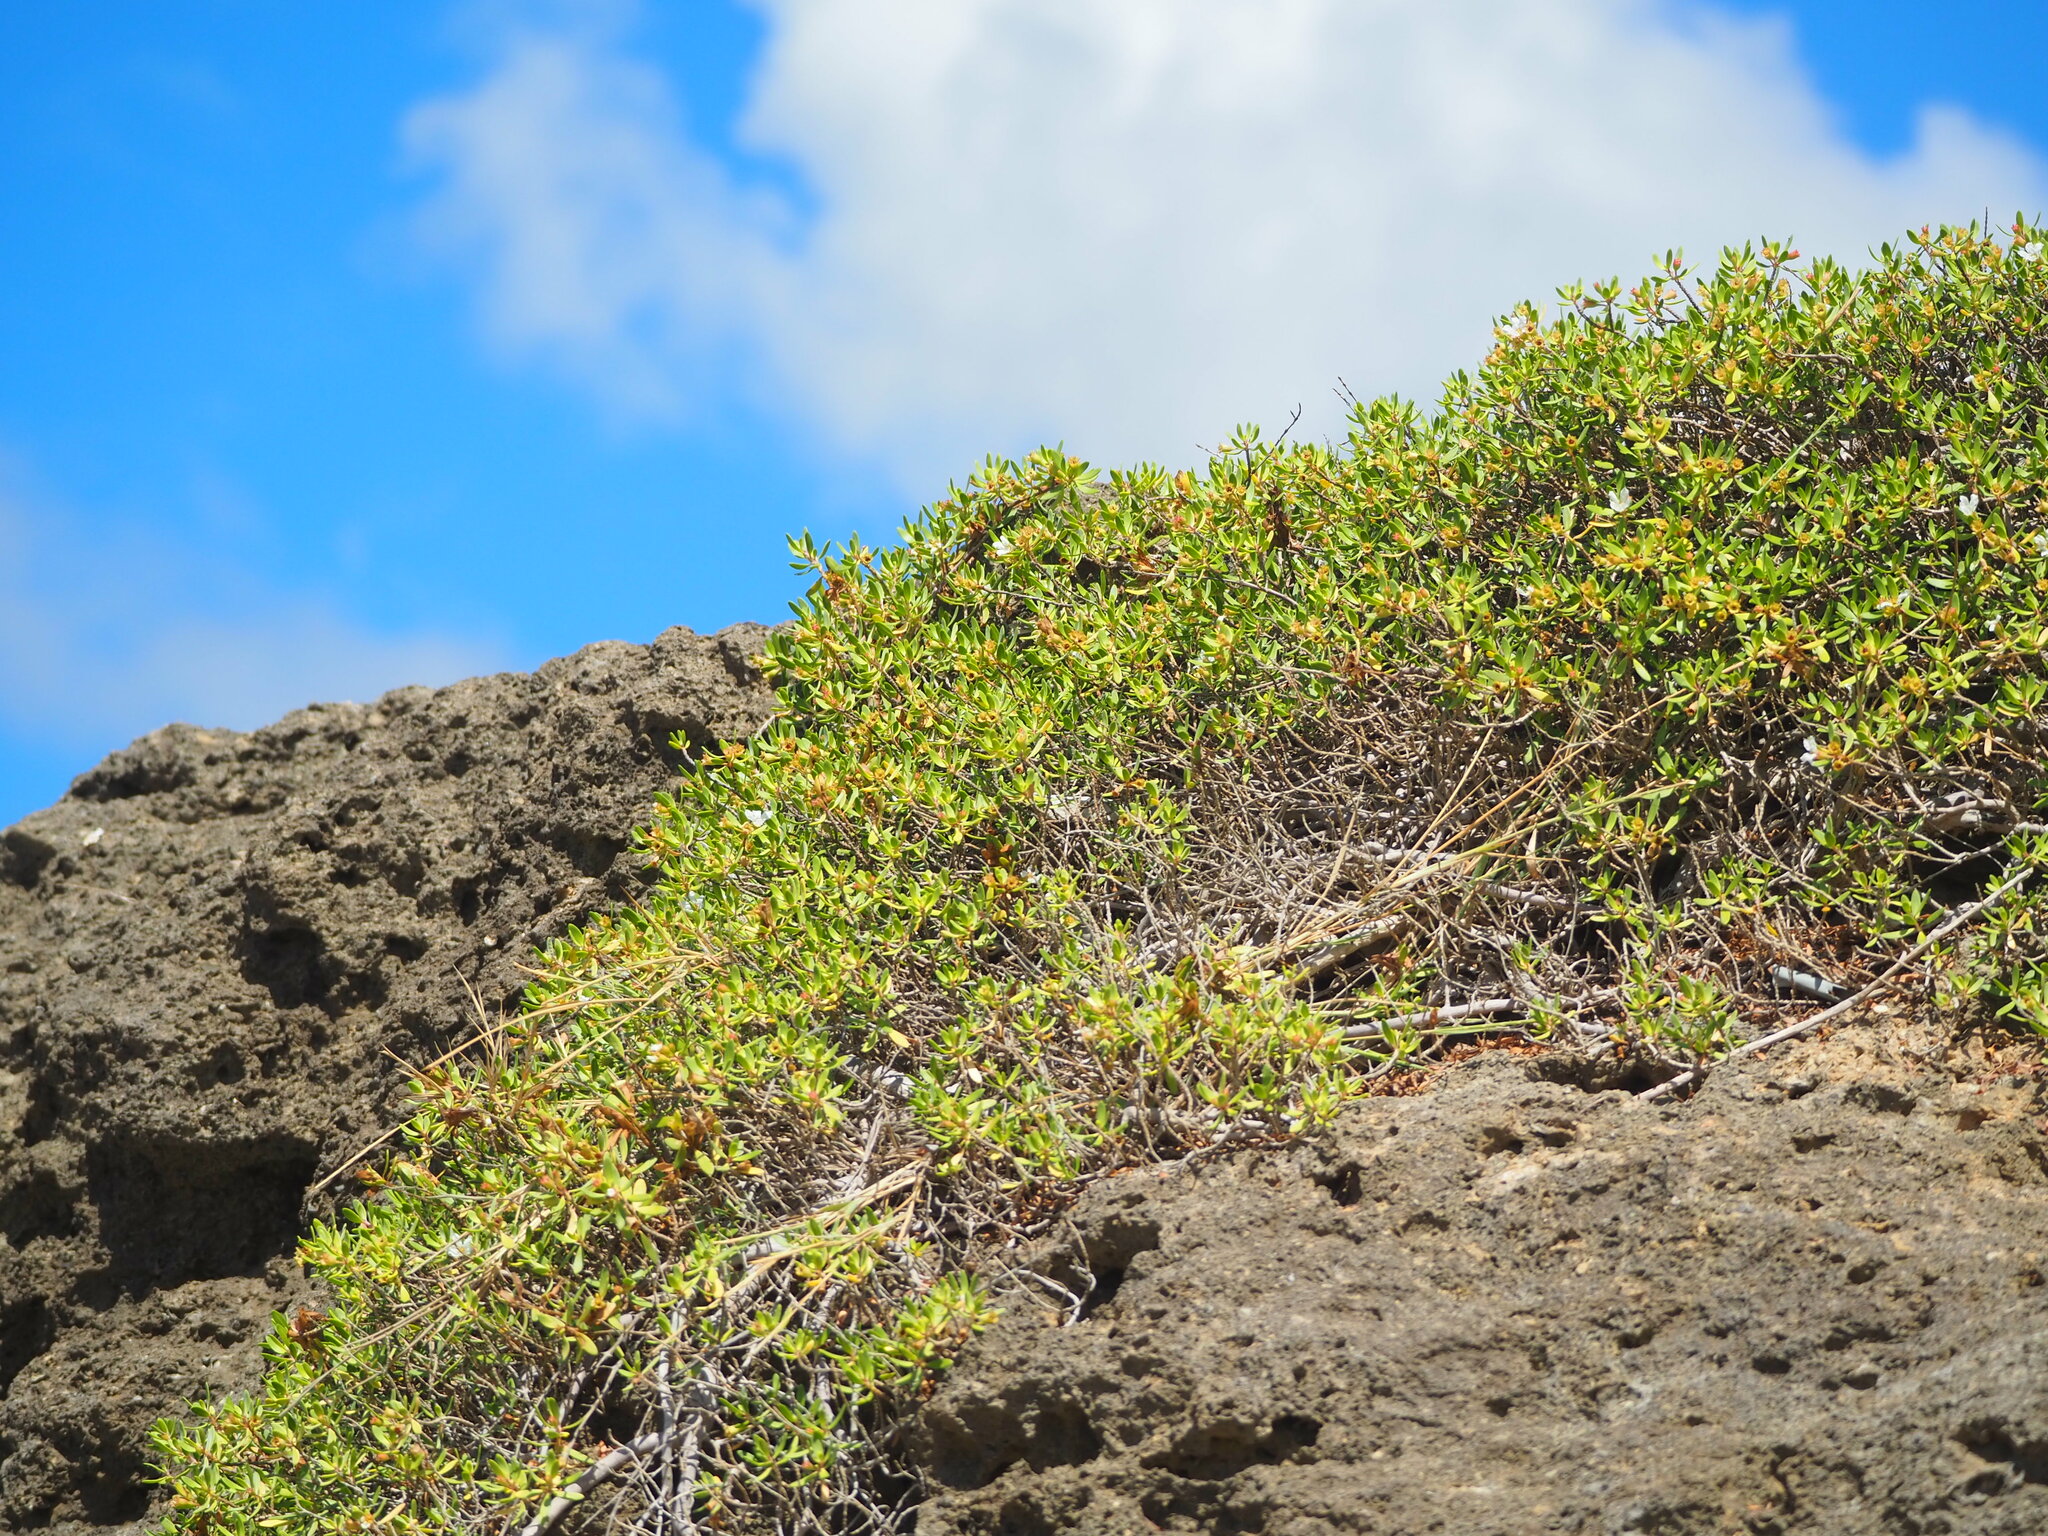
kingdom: Plantae
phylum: Tracheophyta
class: Magnoliopsida
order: Myrtales
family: Lythraceae
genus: Pemphis
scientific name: Pemphis acidula
